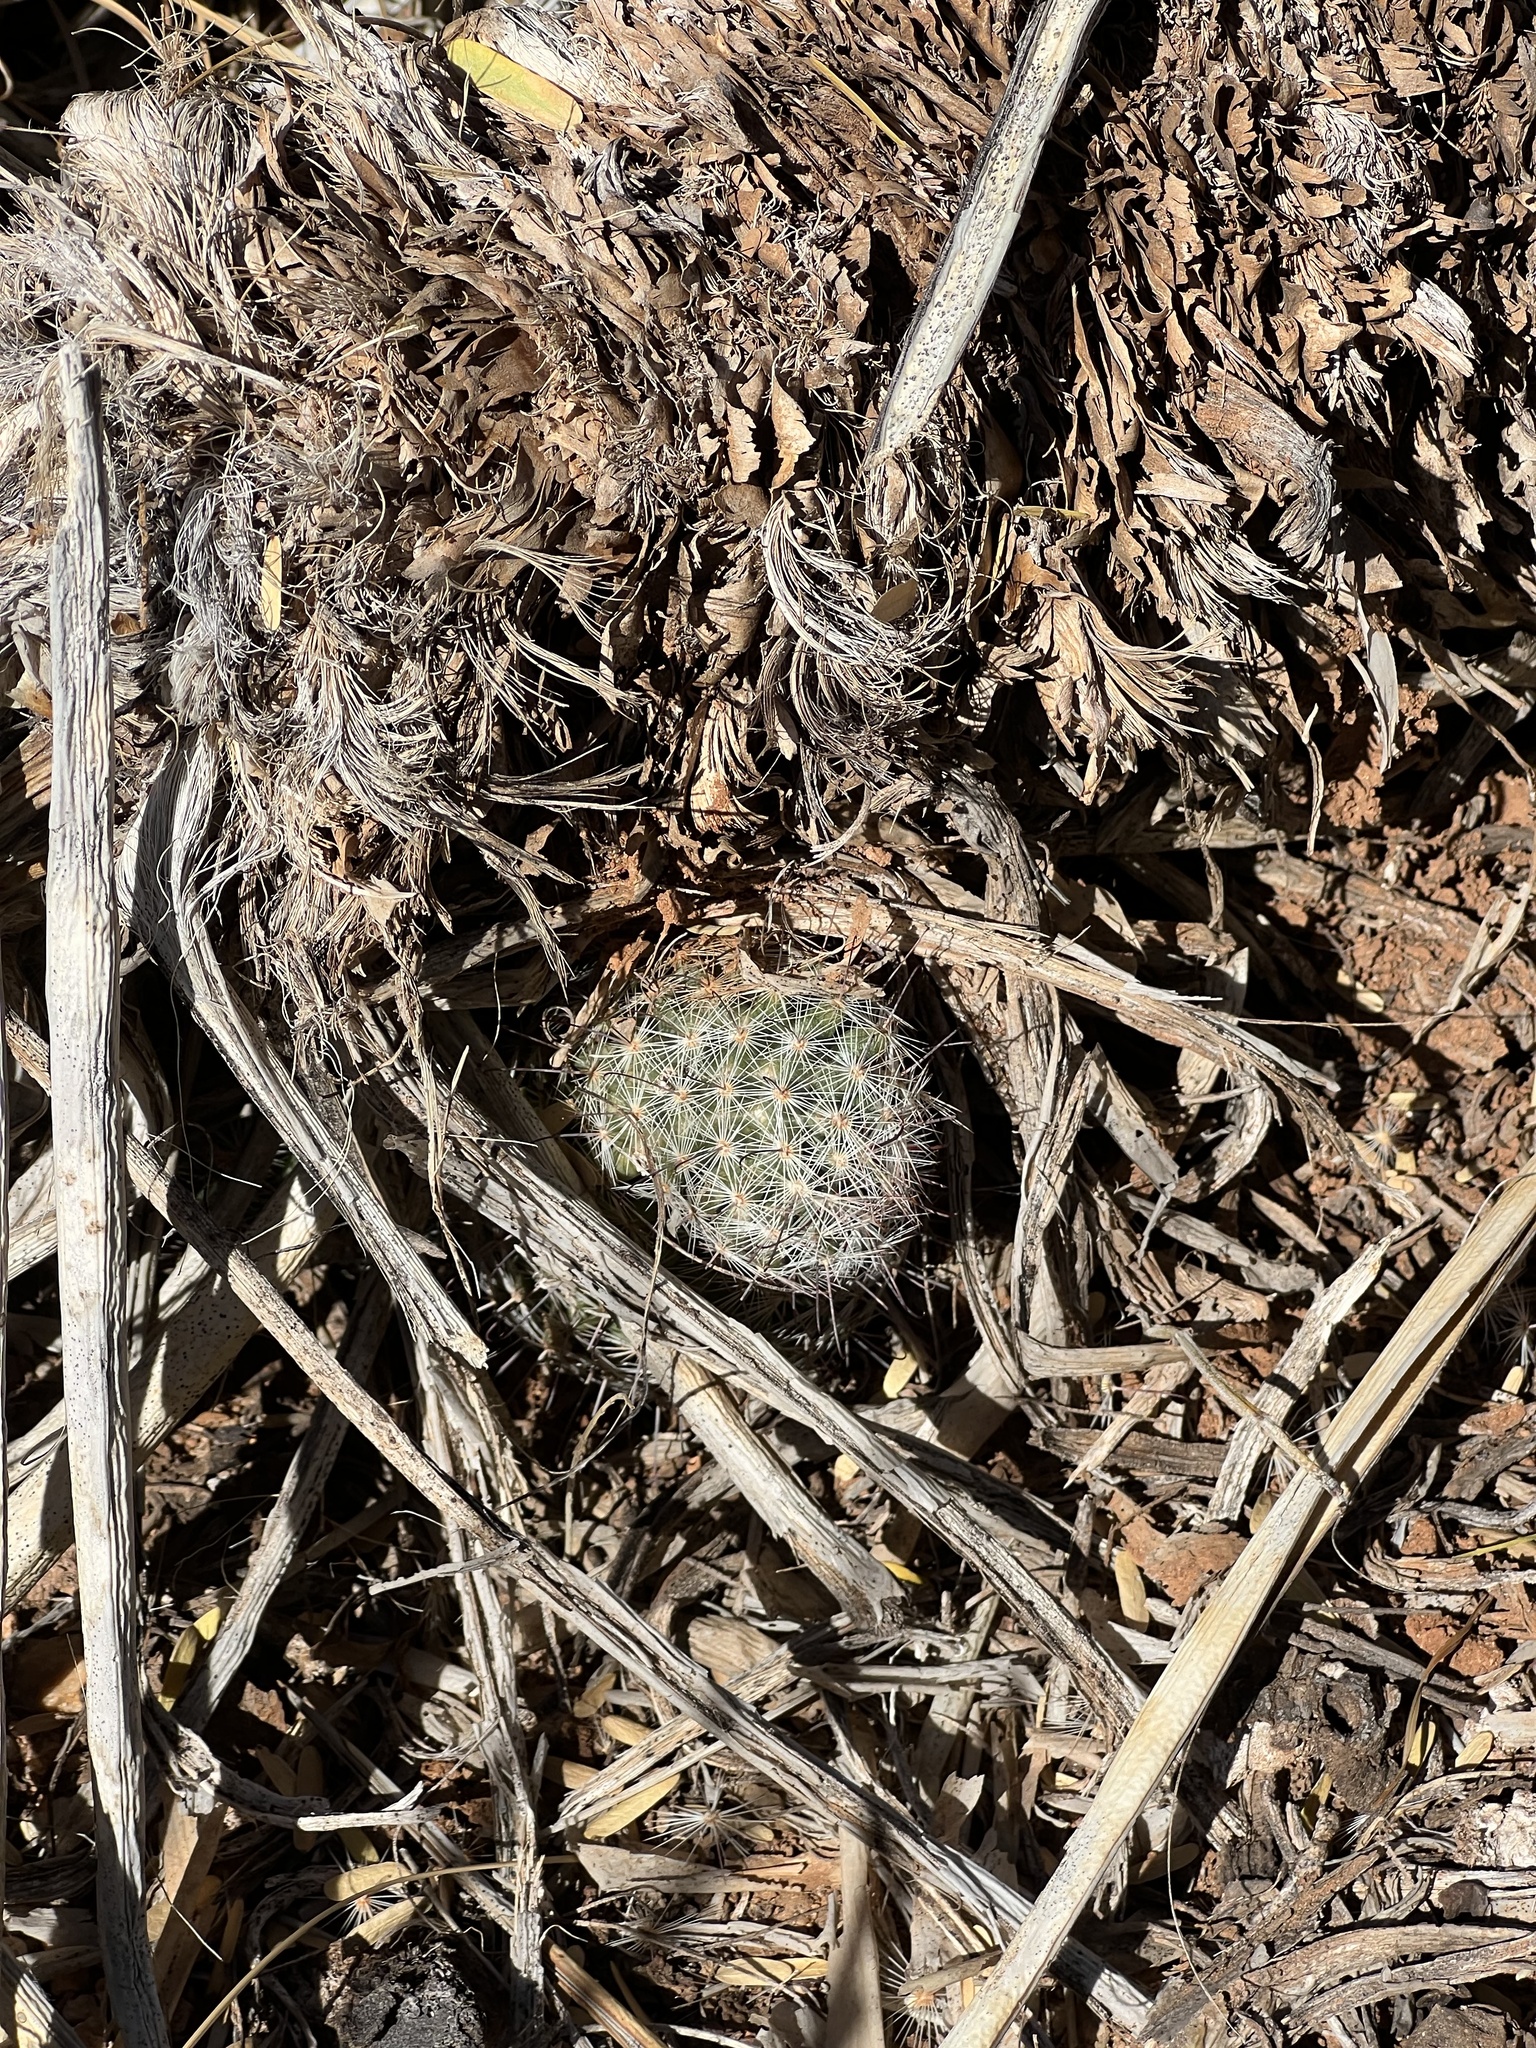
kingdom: Plantae
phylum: Tracheophyta
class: Magnoliopsida
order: Caryophyllales
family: Cactaceae
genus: Cochemiea
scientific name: Cochemiea grahamii
